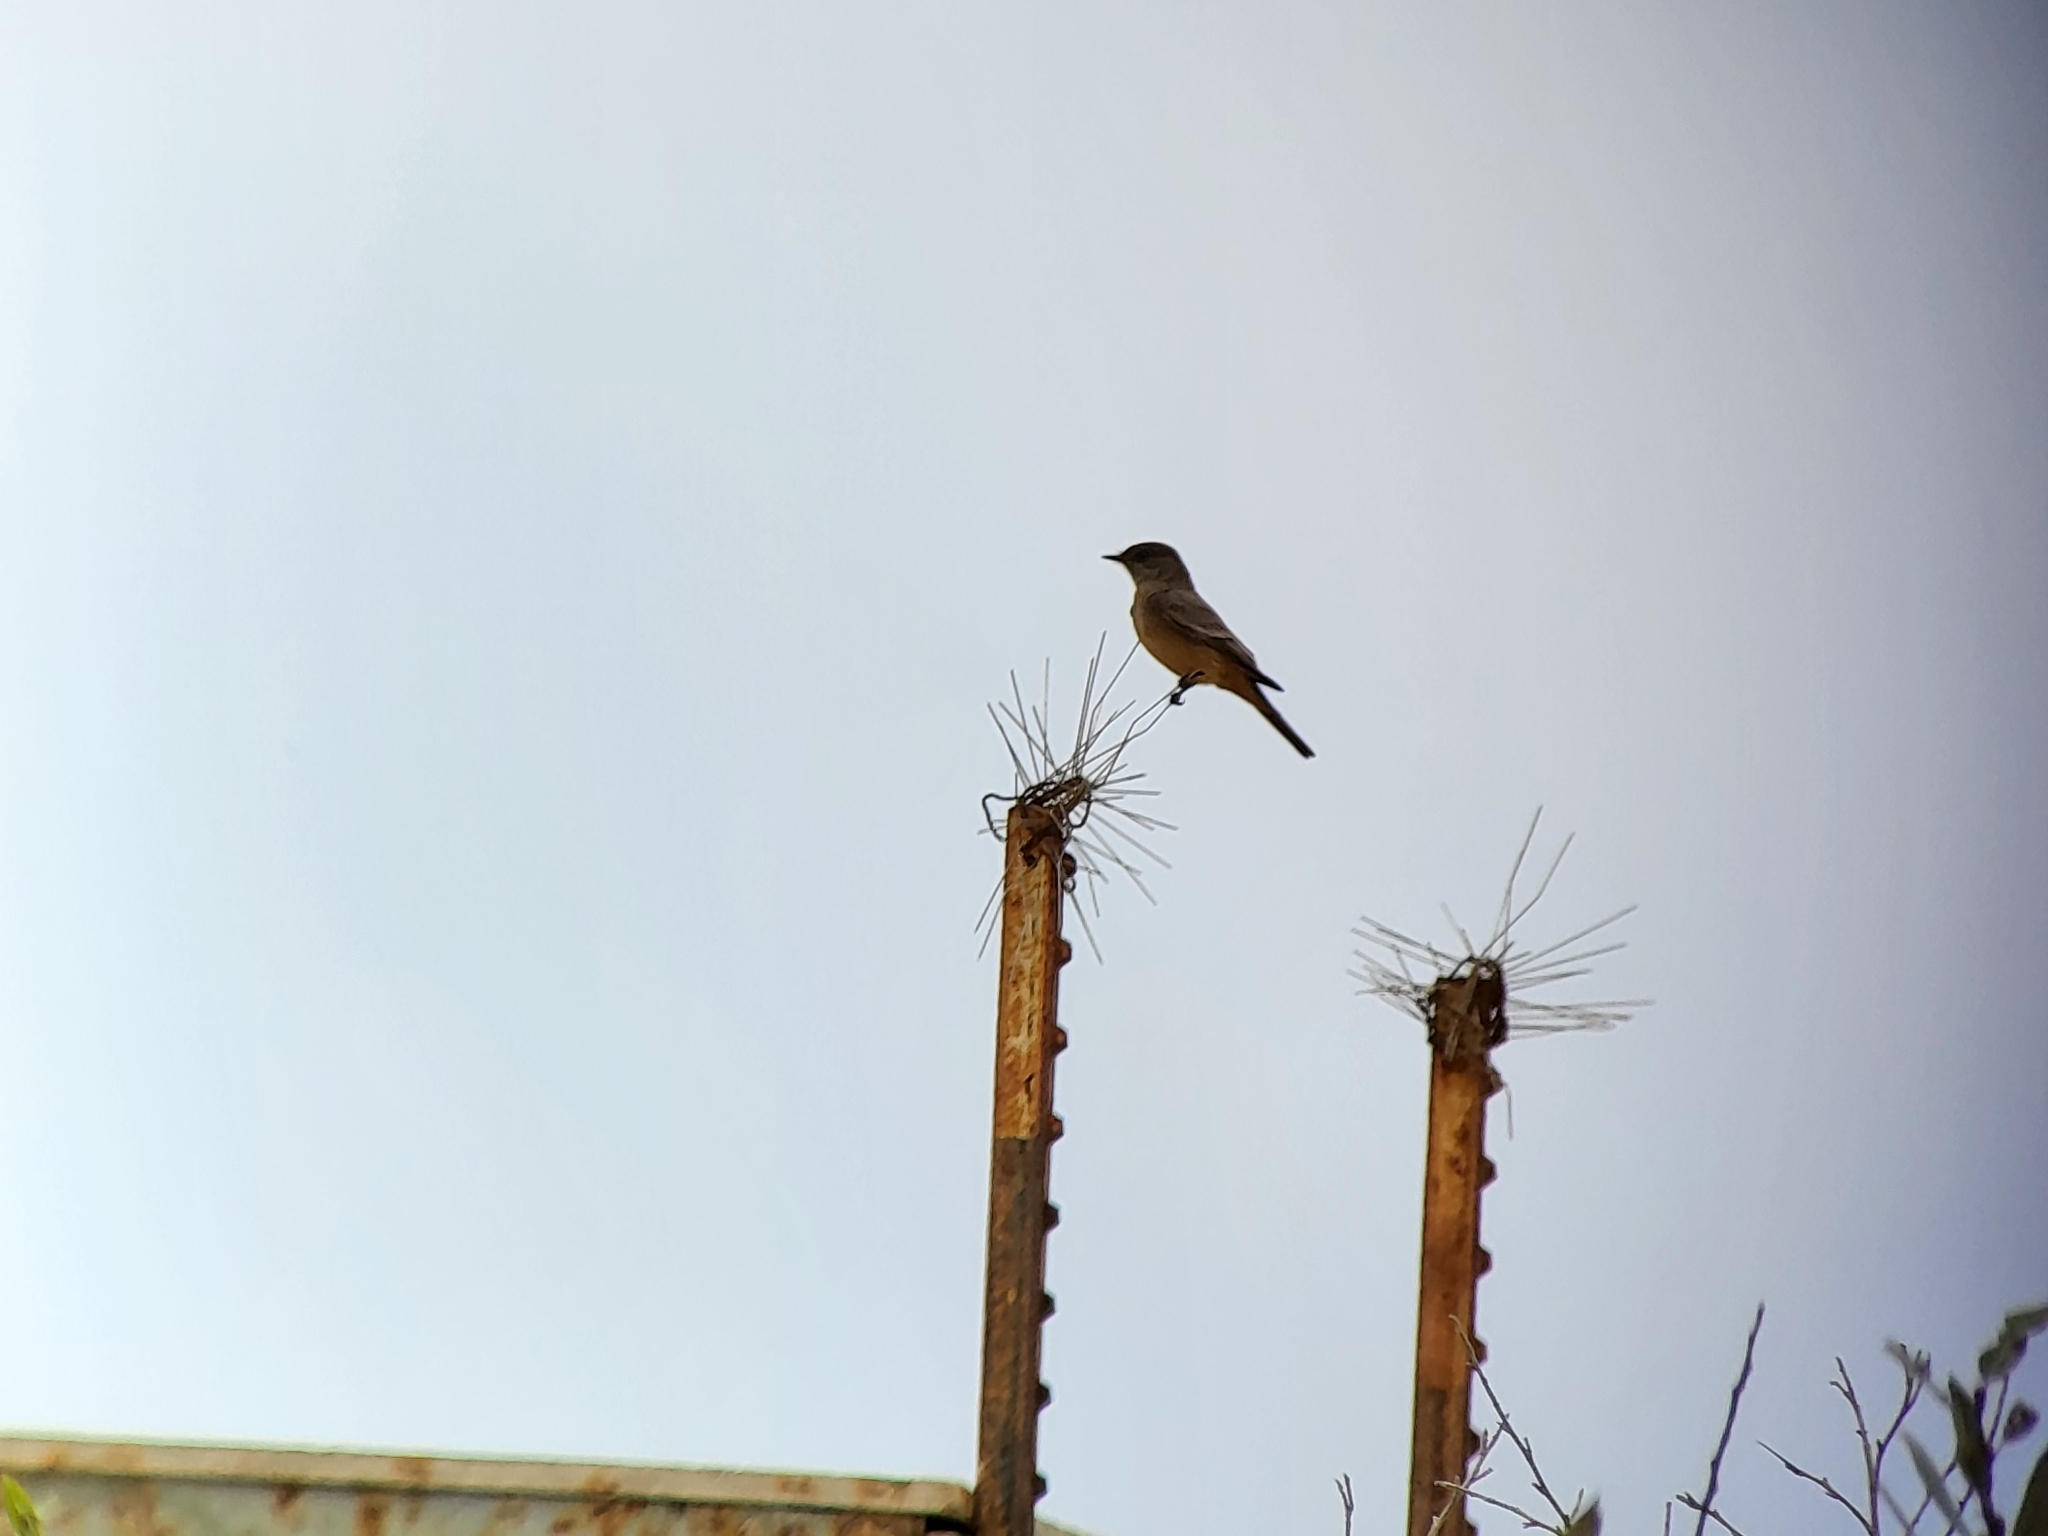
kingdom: Animalia
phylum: Chordata
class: Aves
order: Passeriformes
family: Tyrannidae
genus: Sayornis
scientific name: Sayornis saya
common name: Say's phoebe
